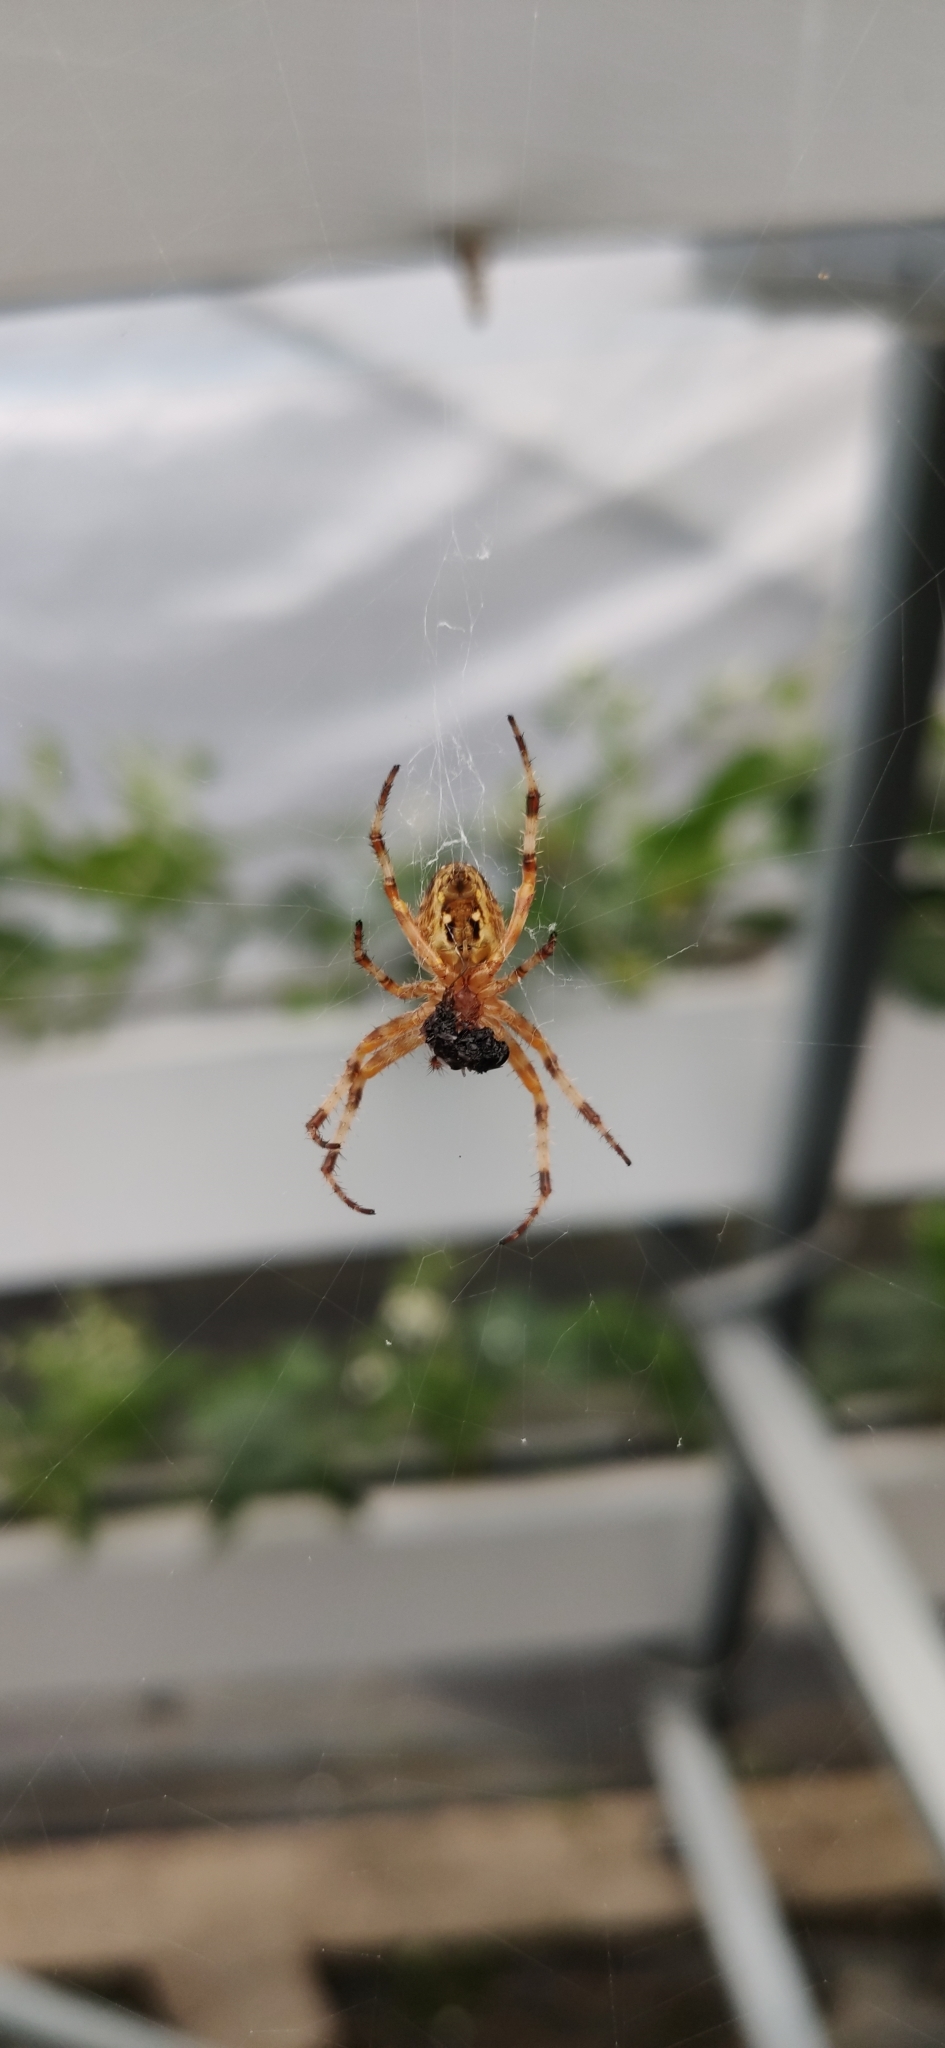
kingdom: Animalia
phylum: Arthropoda
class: Arachnida
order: Araneae
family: Araneidae
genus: Araneus
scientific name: Araneus diadematus
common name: Cross orbweaver
